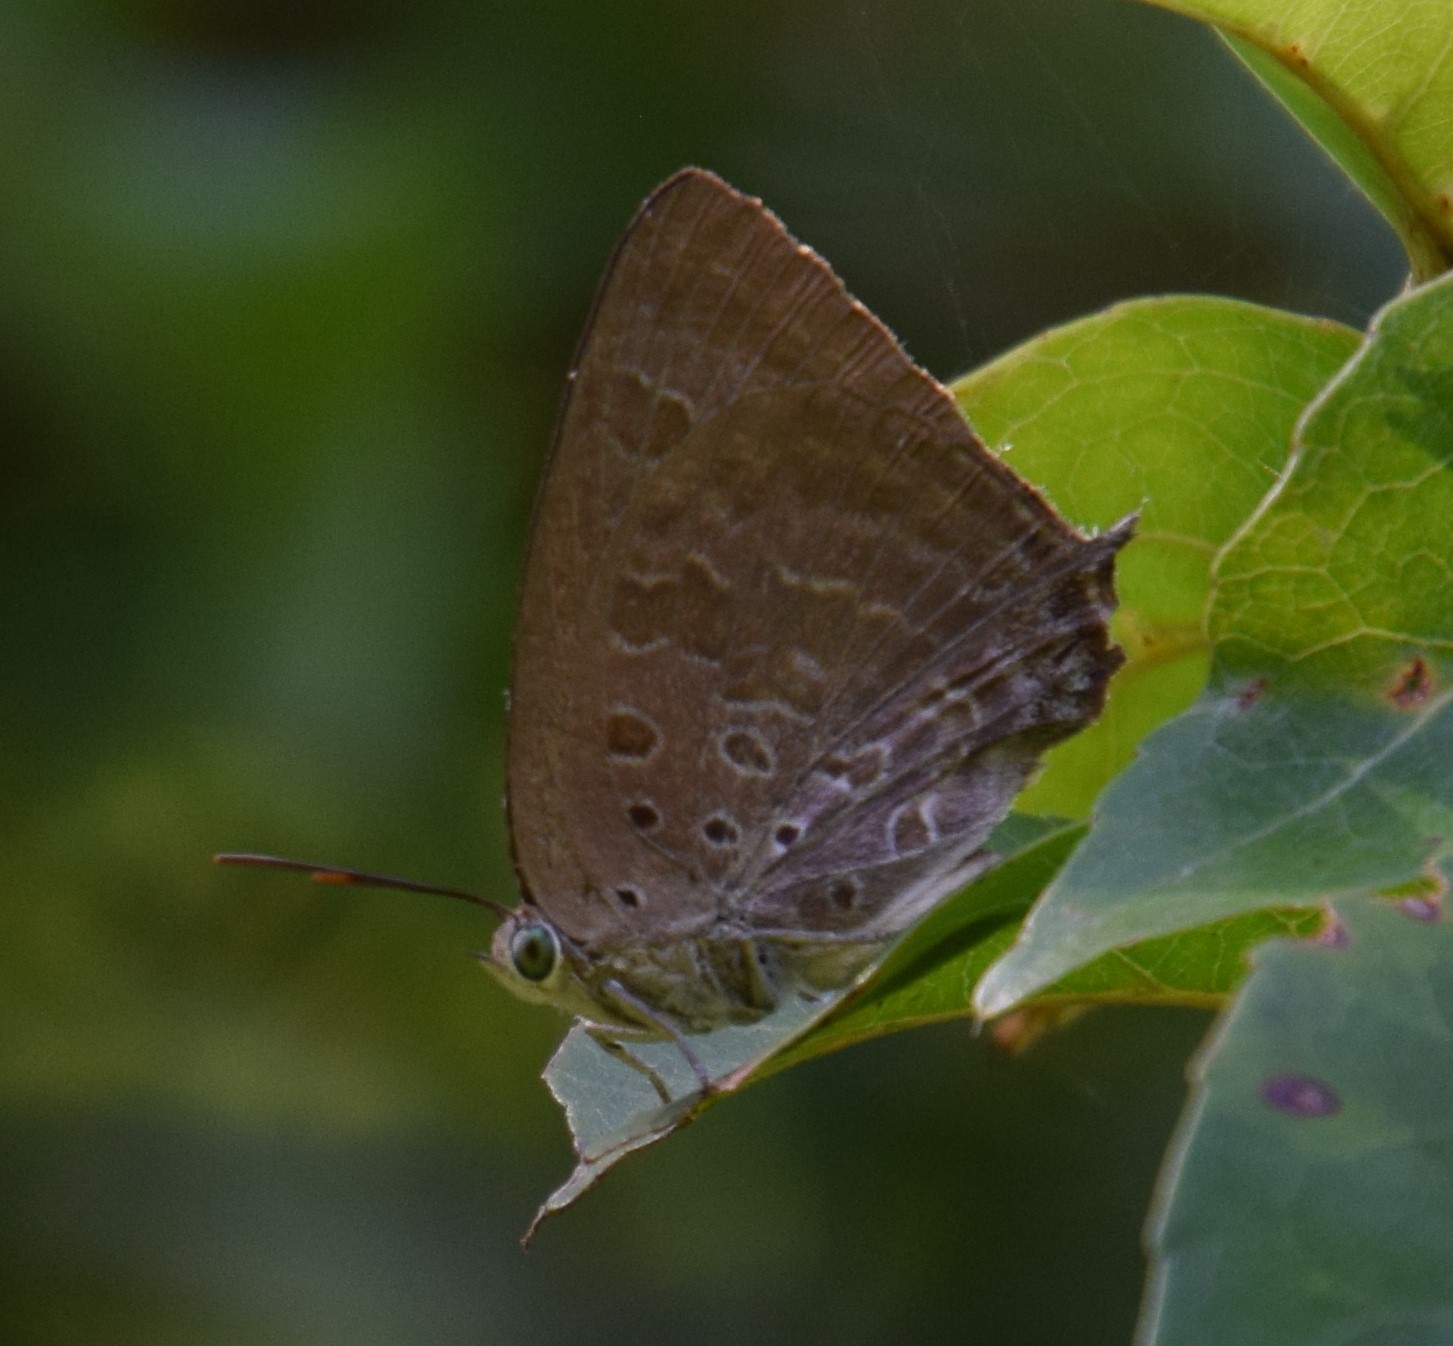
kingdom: Animalia
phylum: Arthropoda
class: Insecta
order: Lepidoptera
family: Lycaenidae
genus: Arhopala
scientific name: Arhopala
